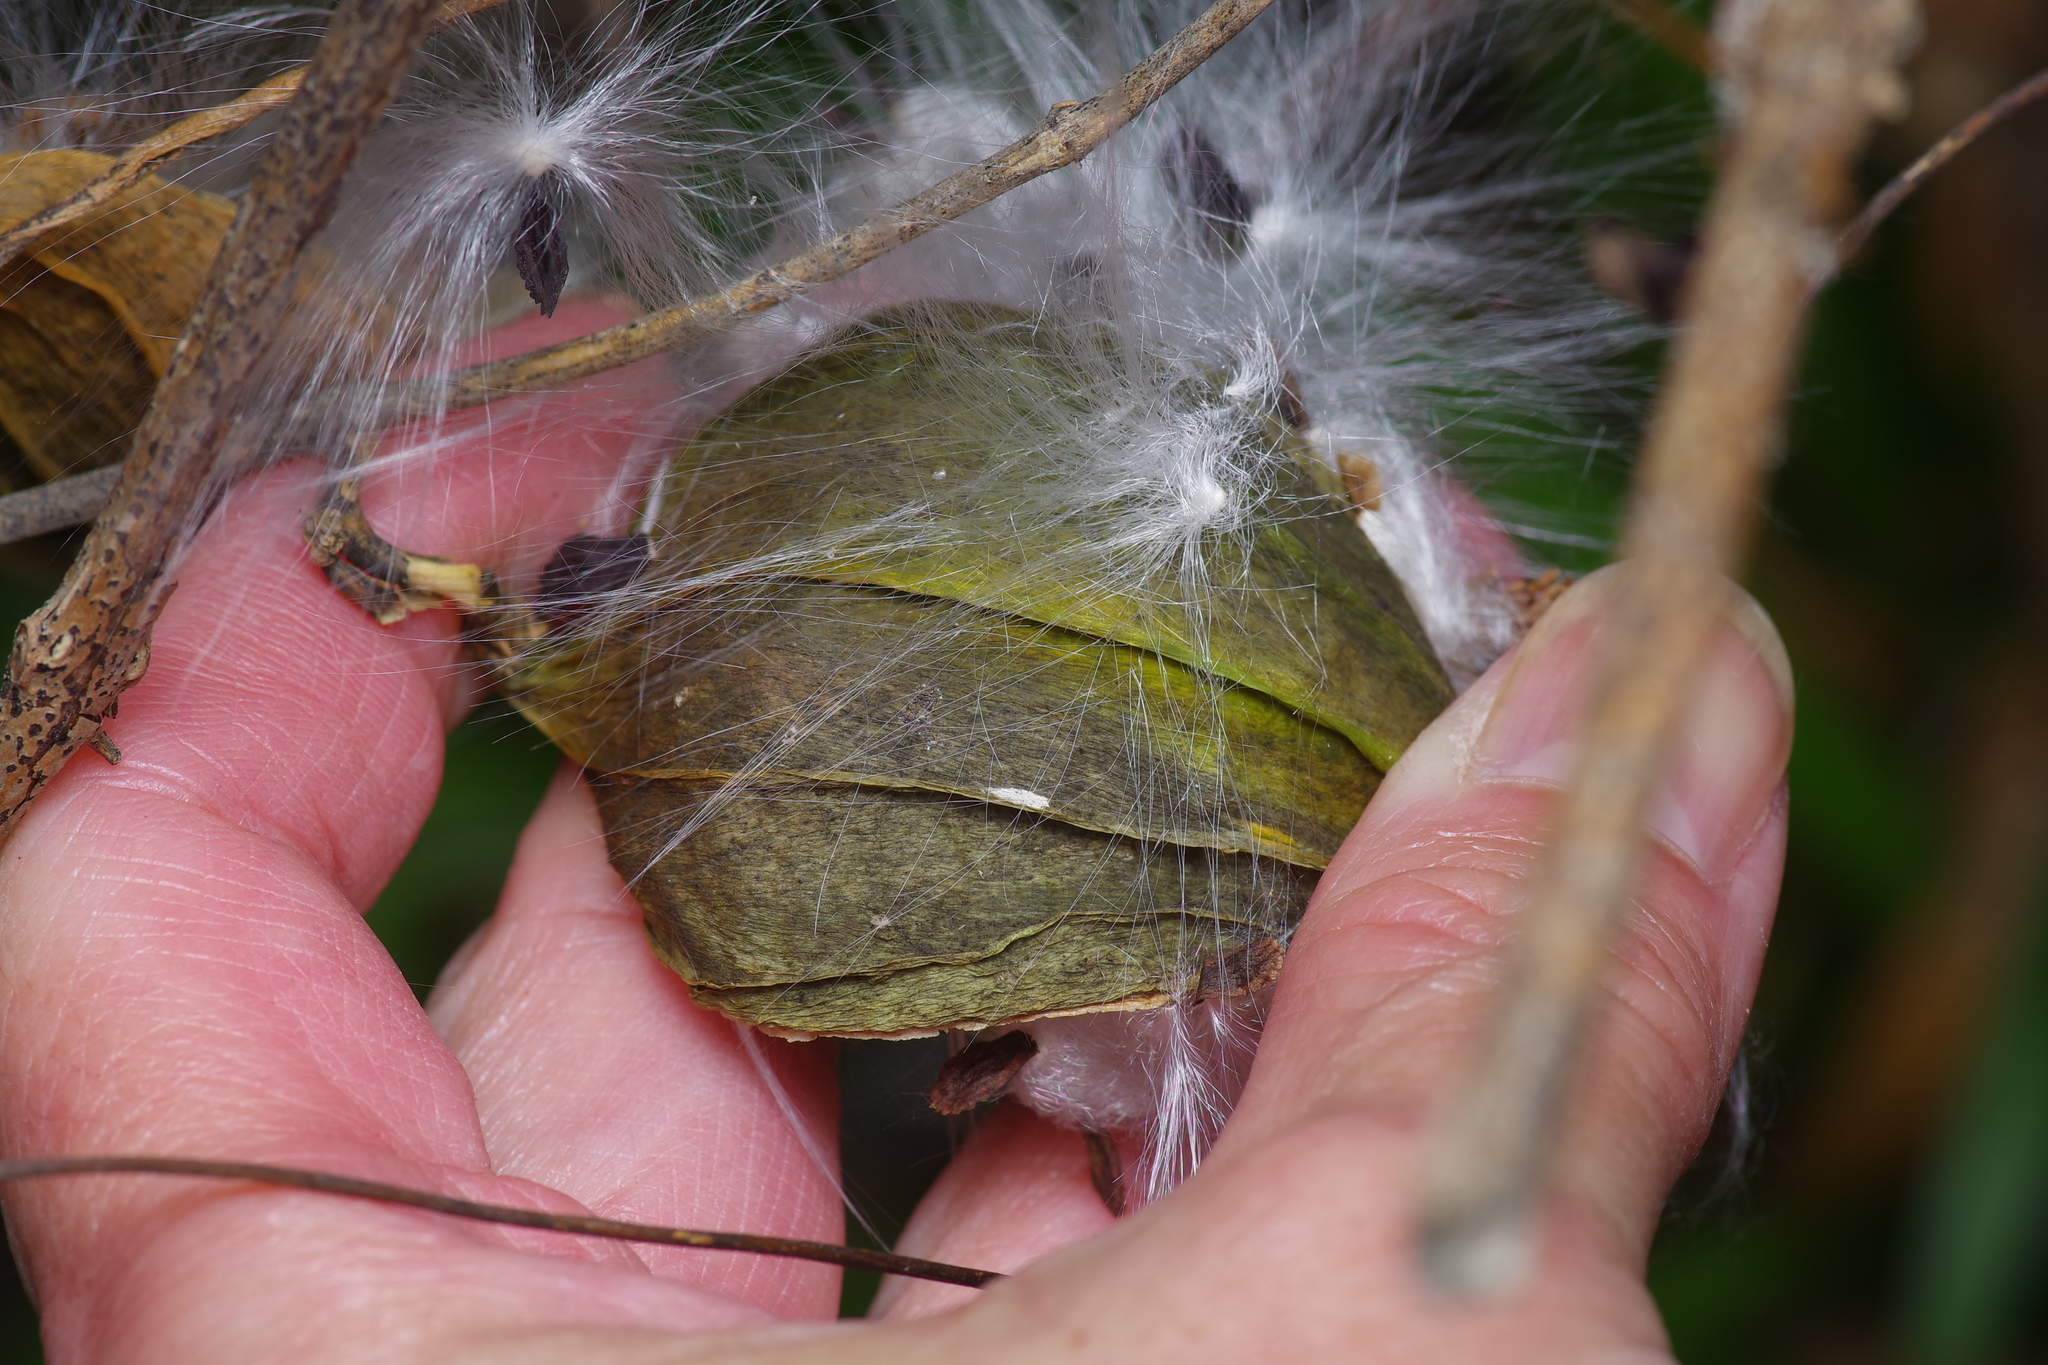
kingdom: Plantae
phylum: Tracheophyta
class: Magnoliopsida
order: Gentianales
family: Apocynaceae
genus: Gonolobus
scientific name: Gonolobus suberosus
